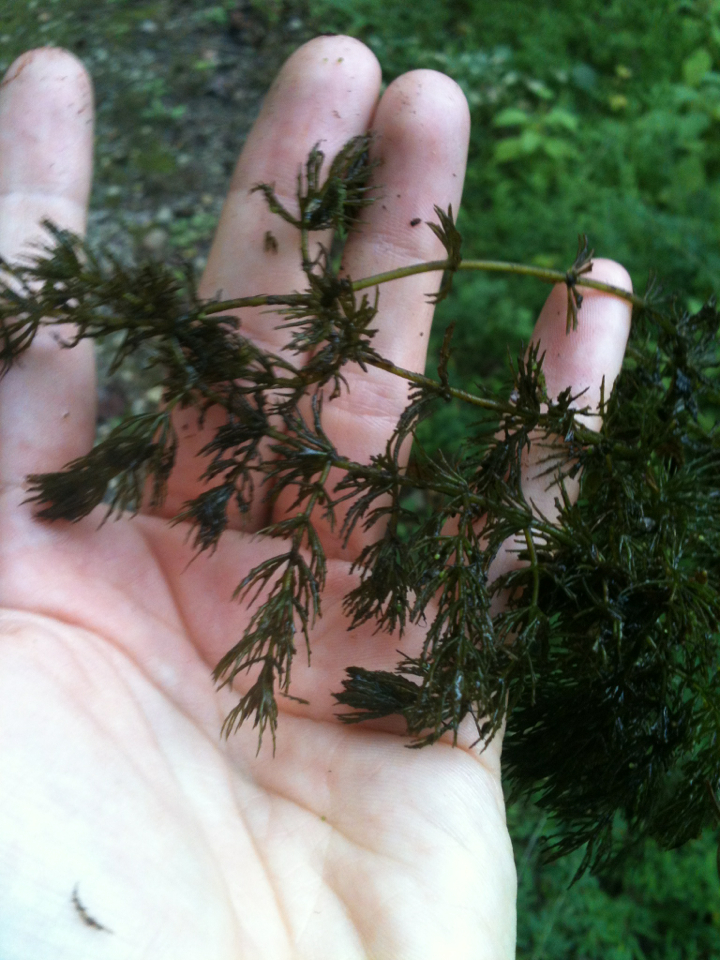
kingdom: Plantae
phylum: Tracheophyta
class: Magnoliopsida
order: Ceratophyllales
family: Ceratophyllaceae
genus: Ceratophyllum
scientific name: Ceratophyllum demersum
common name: Rigid hornwort
